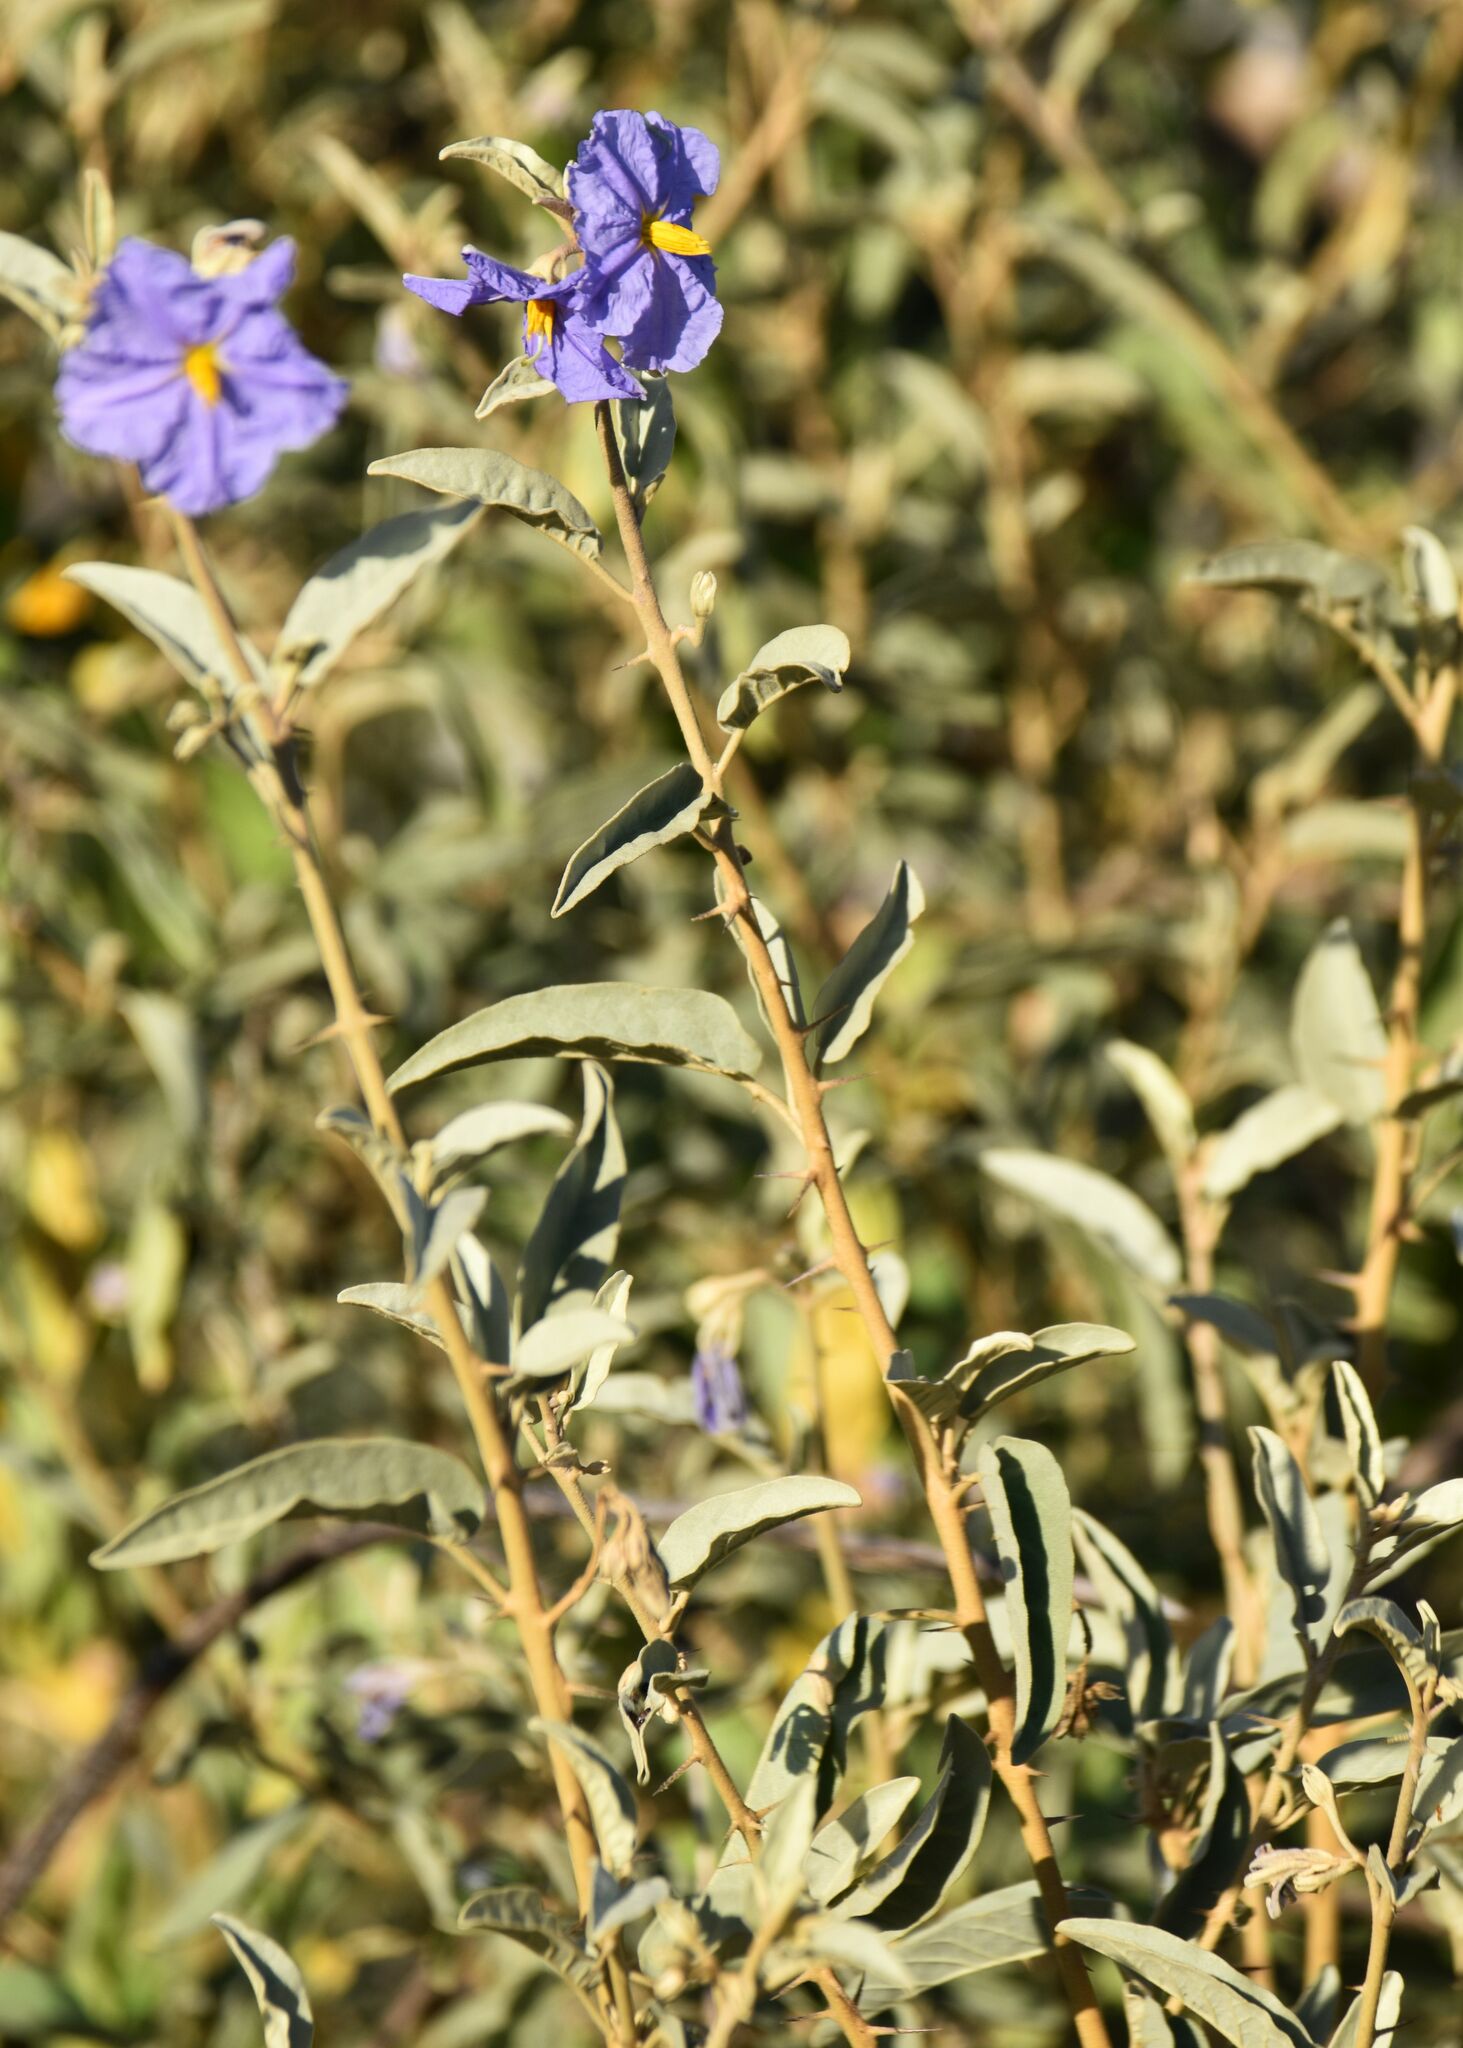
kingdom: Plantae
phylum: Tracheophyta
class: Magnoliopsida
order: Solanales
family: Solanaceae
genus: Solanum
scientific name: Solanum hindsianum
